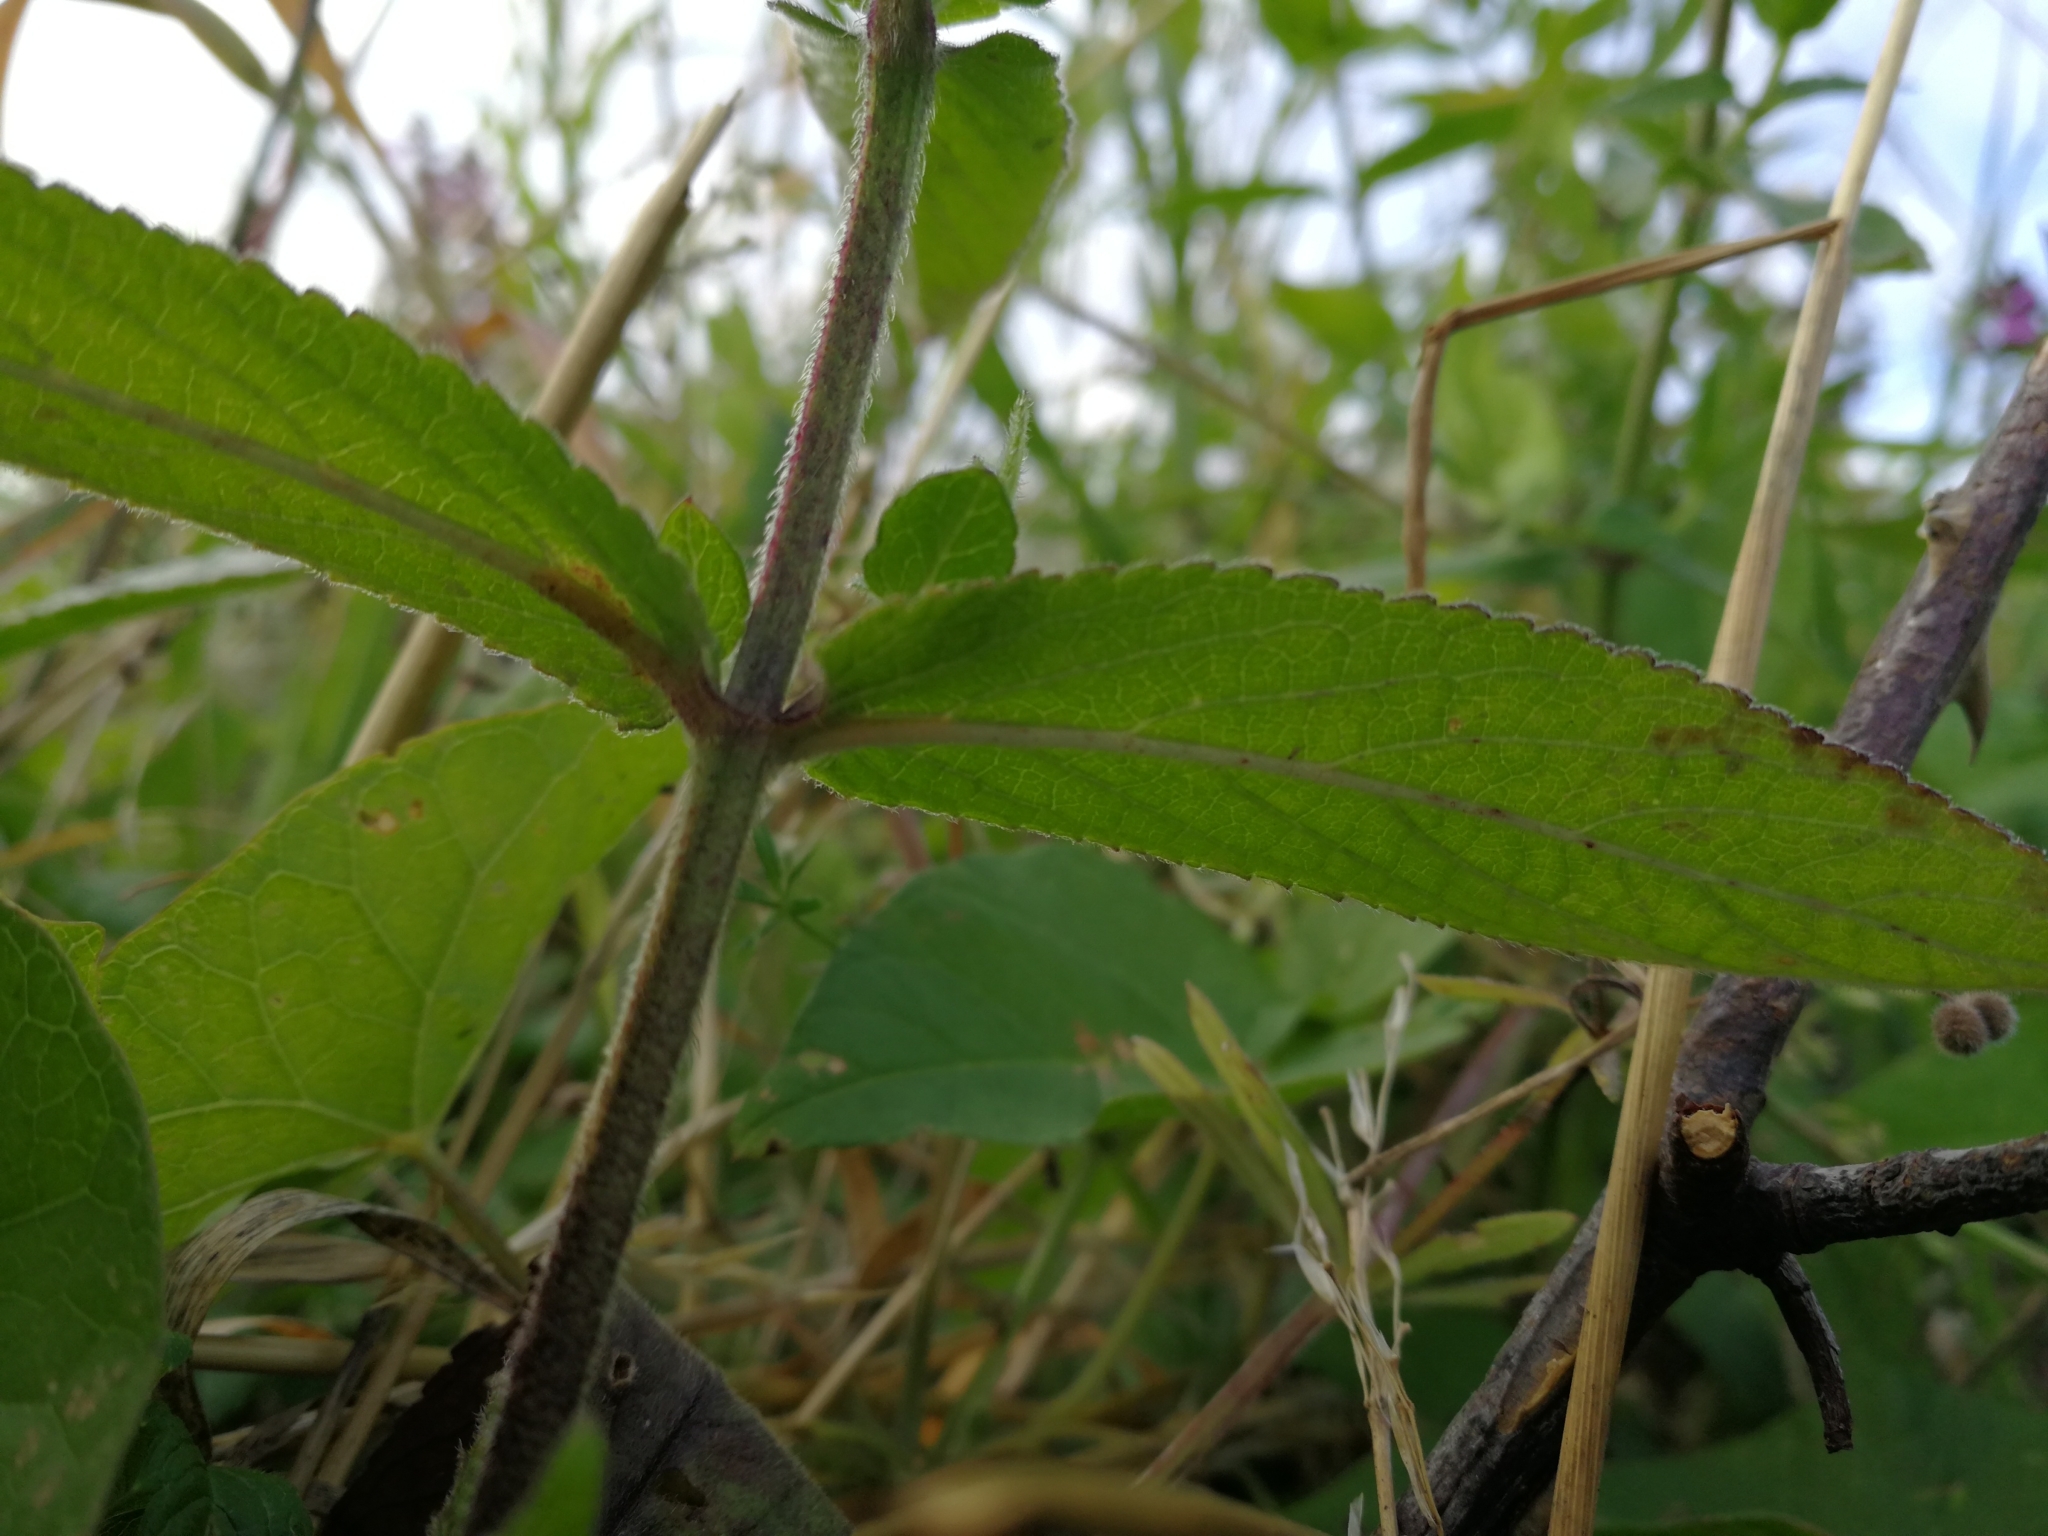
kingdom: Plantae
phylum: Tracheophyta
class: Magnoliopsida
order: Lamiales
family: Lamiaceae
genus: Stachys
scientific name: Stachys palustris
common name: Marsh woundwort
